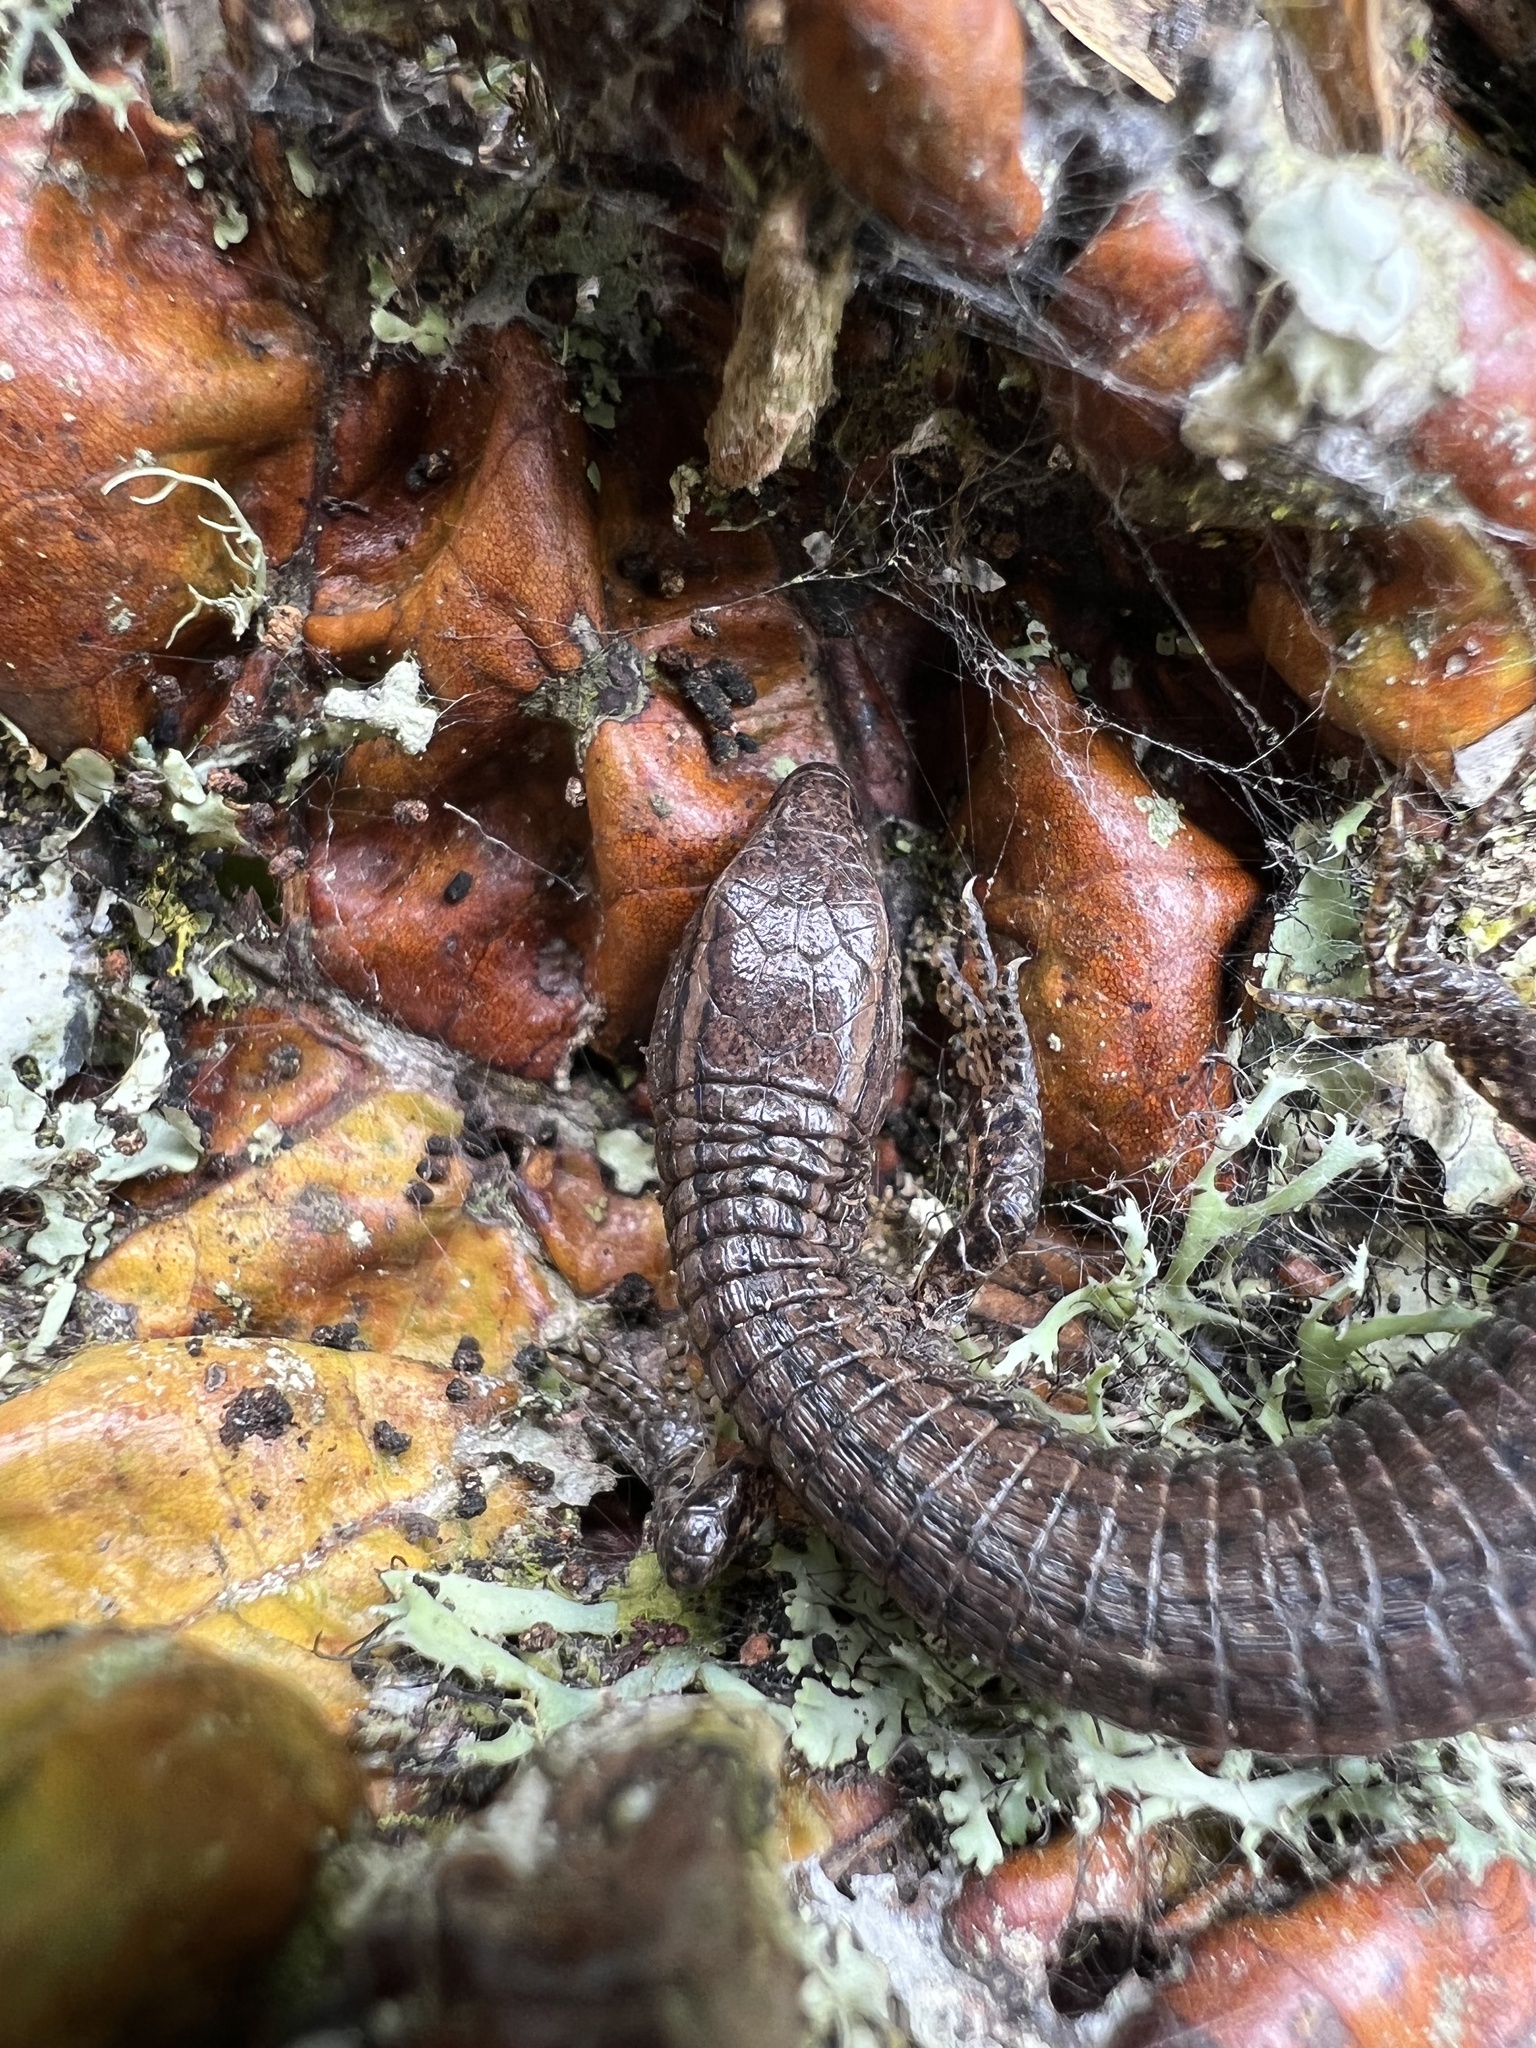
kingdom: Animalia
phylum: Chordata
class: Squamata
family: Gymnophthalmidae
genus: Riama
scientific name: Riama striata
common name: Striped lightbulb lizard
